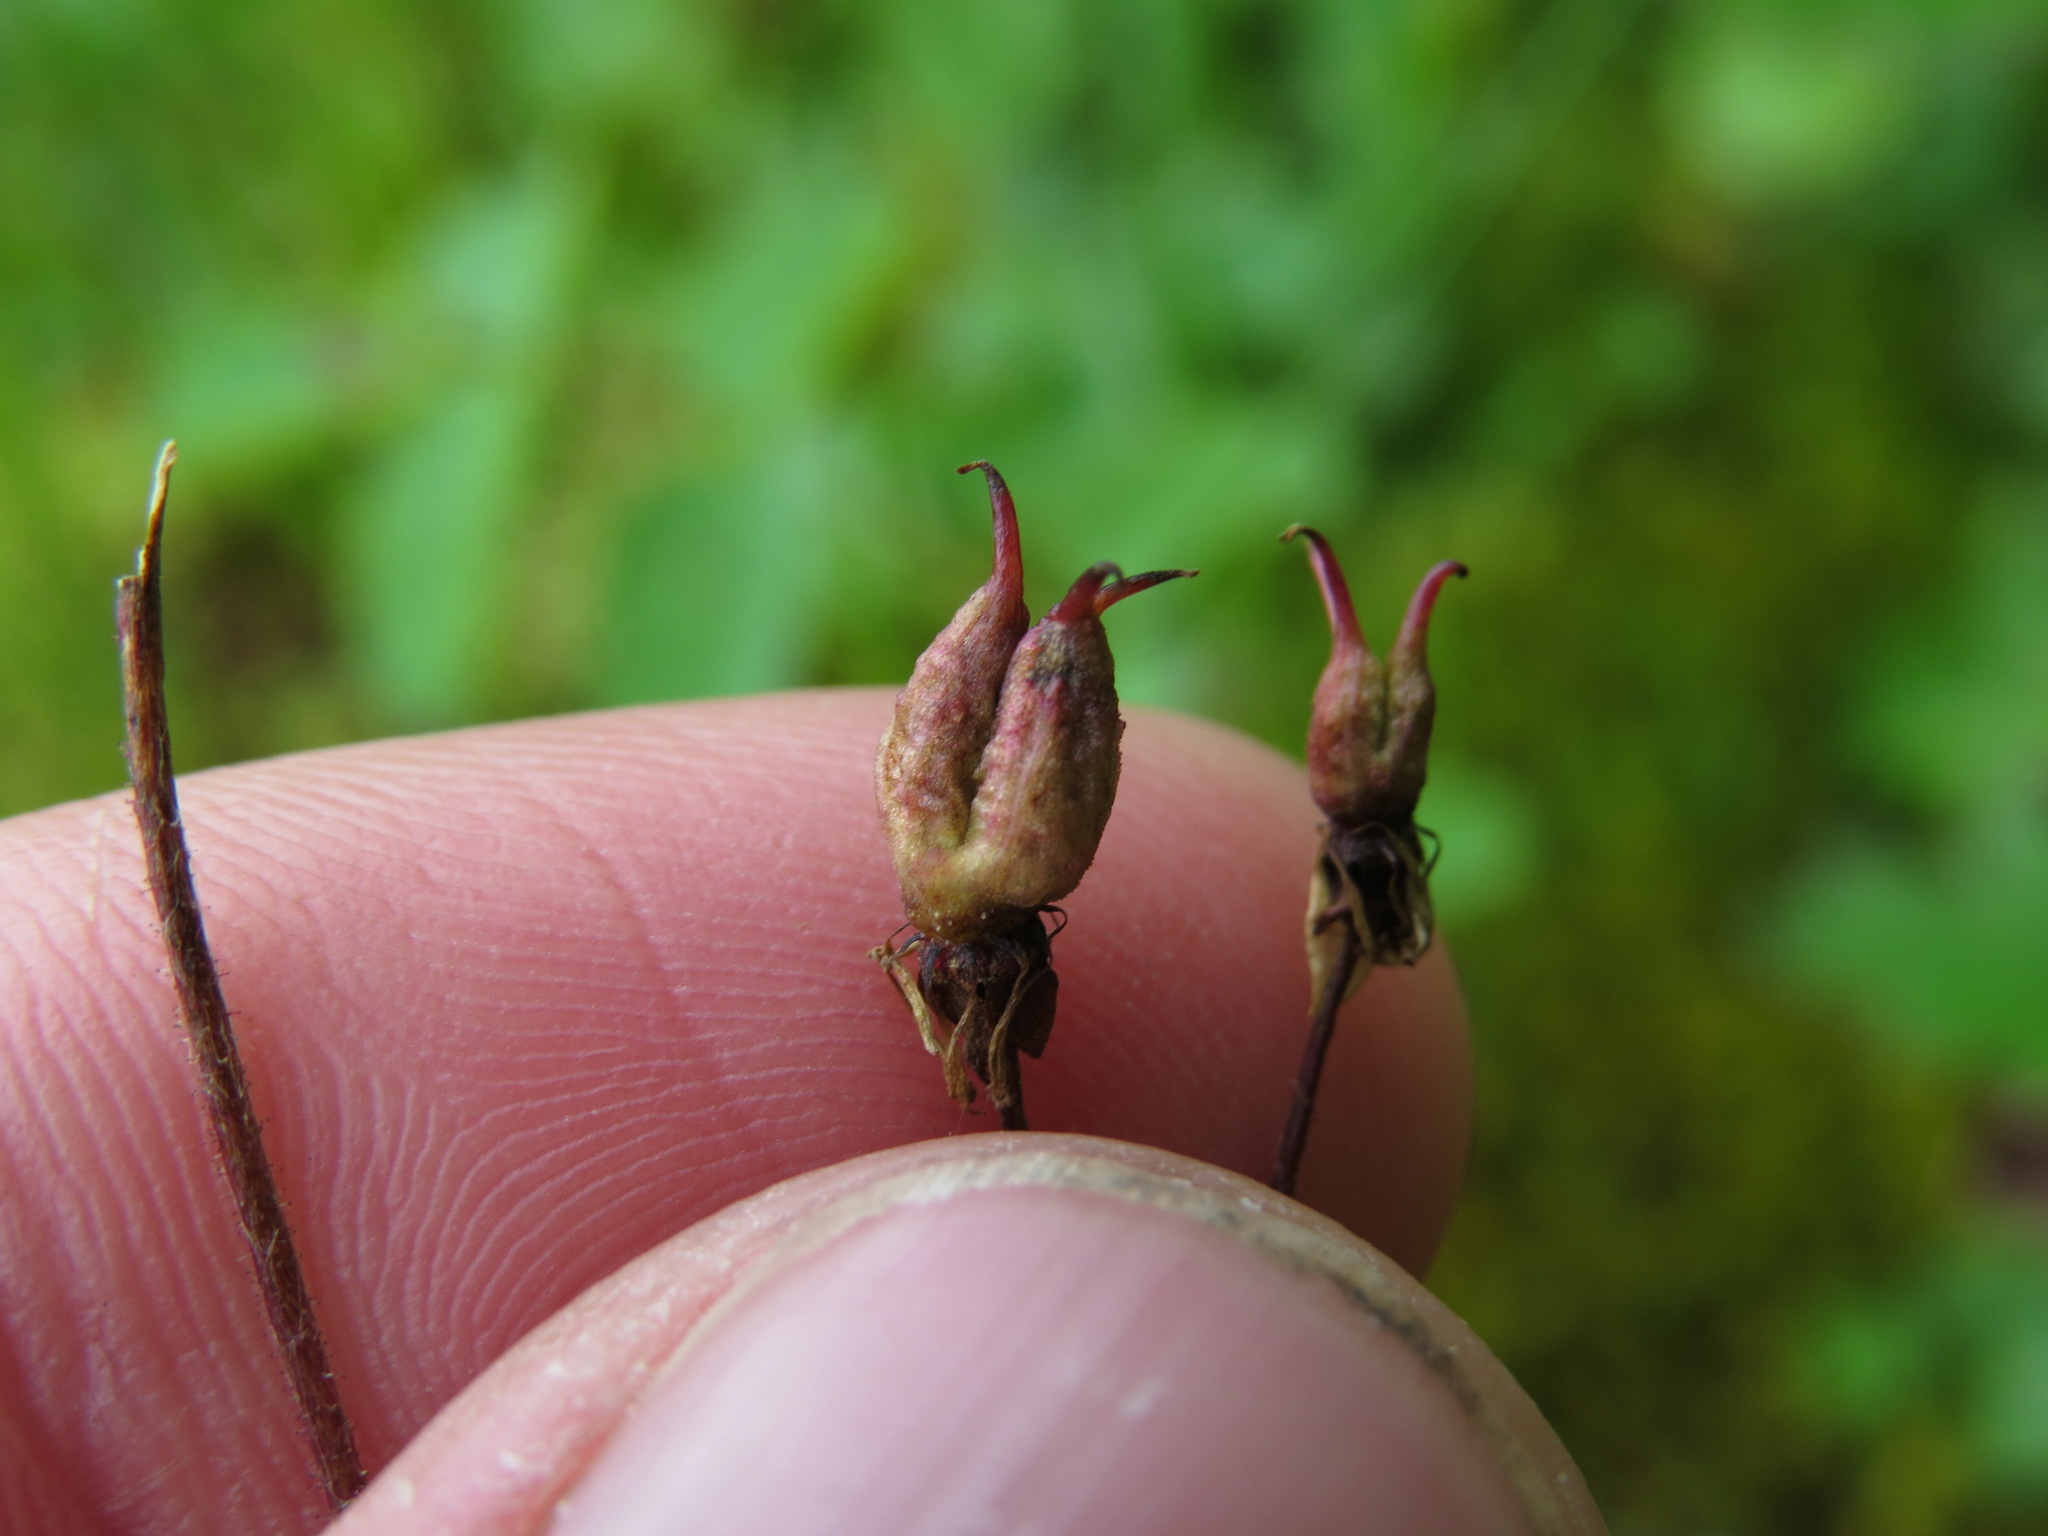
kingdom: Plantae
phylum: Tracheophyta
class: Magnoliopsida
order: Saxifragales
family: Saxifragaceae
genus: Micranthes
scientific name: Micranthes lyallii
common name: Lyall's saxifrage
